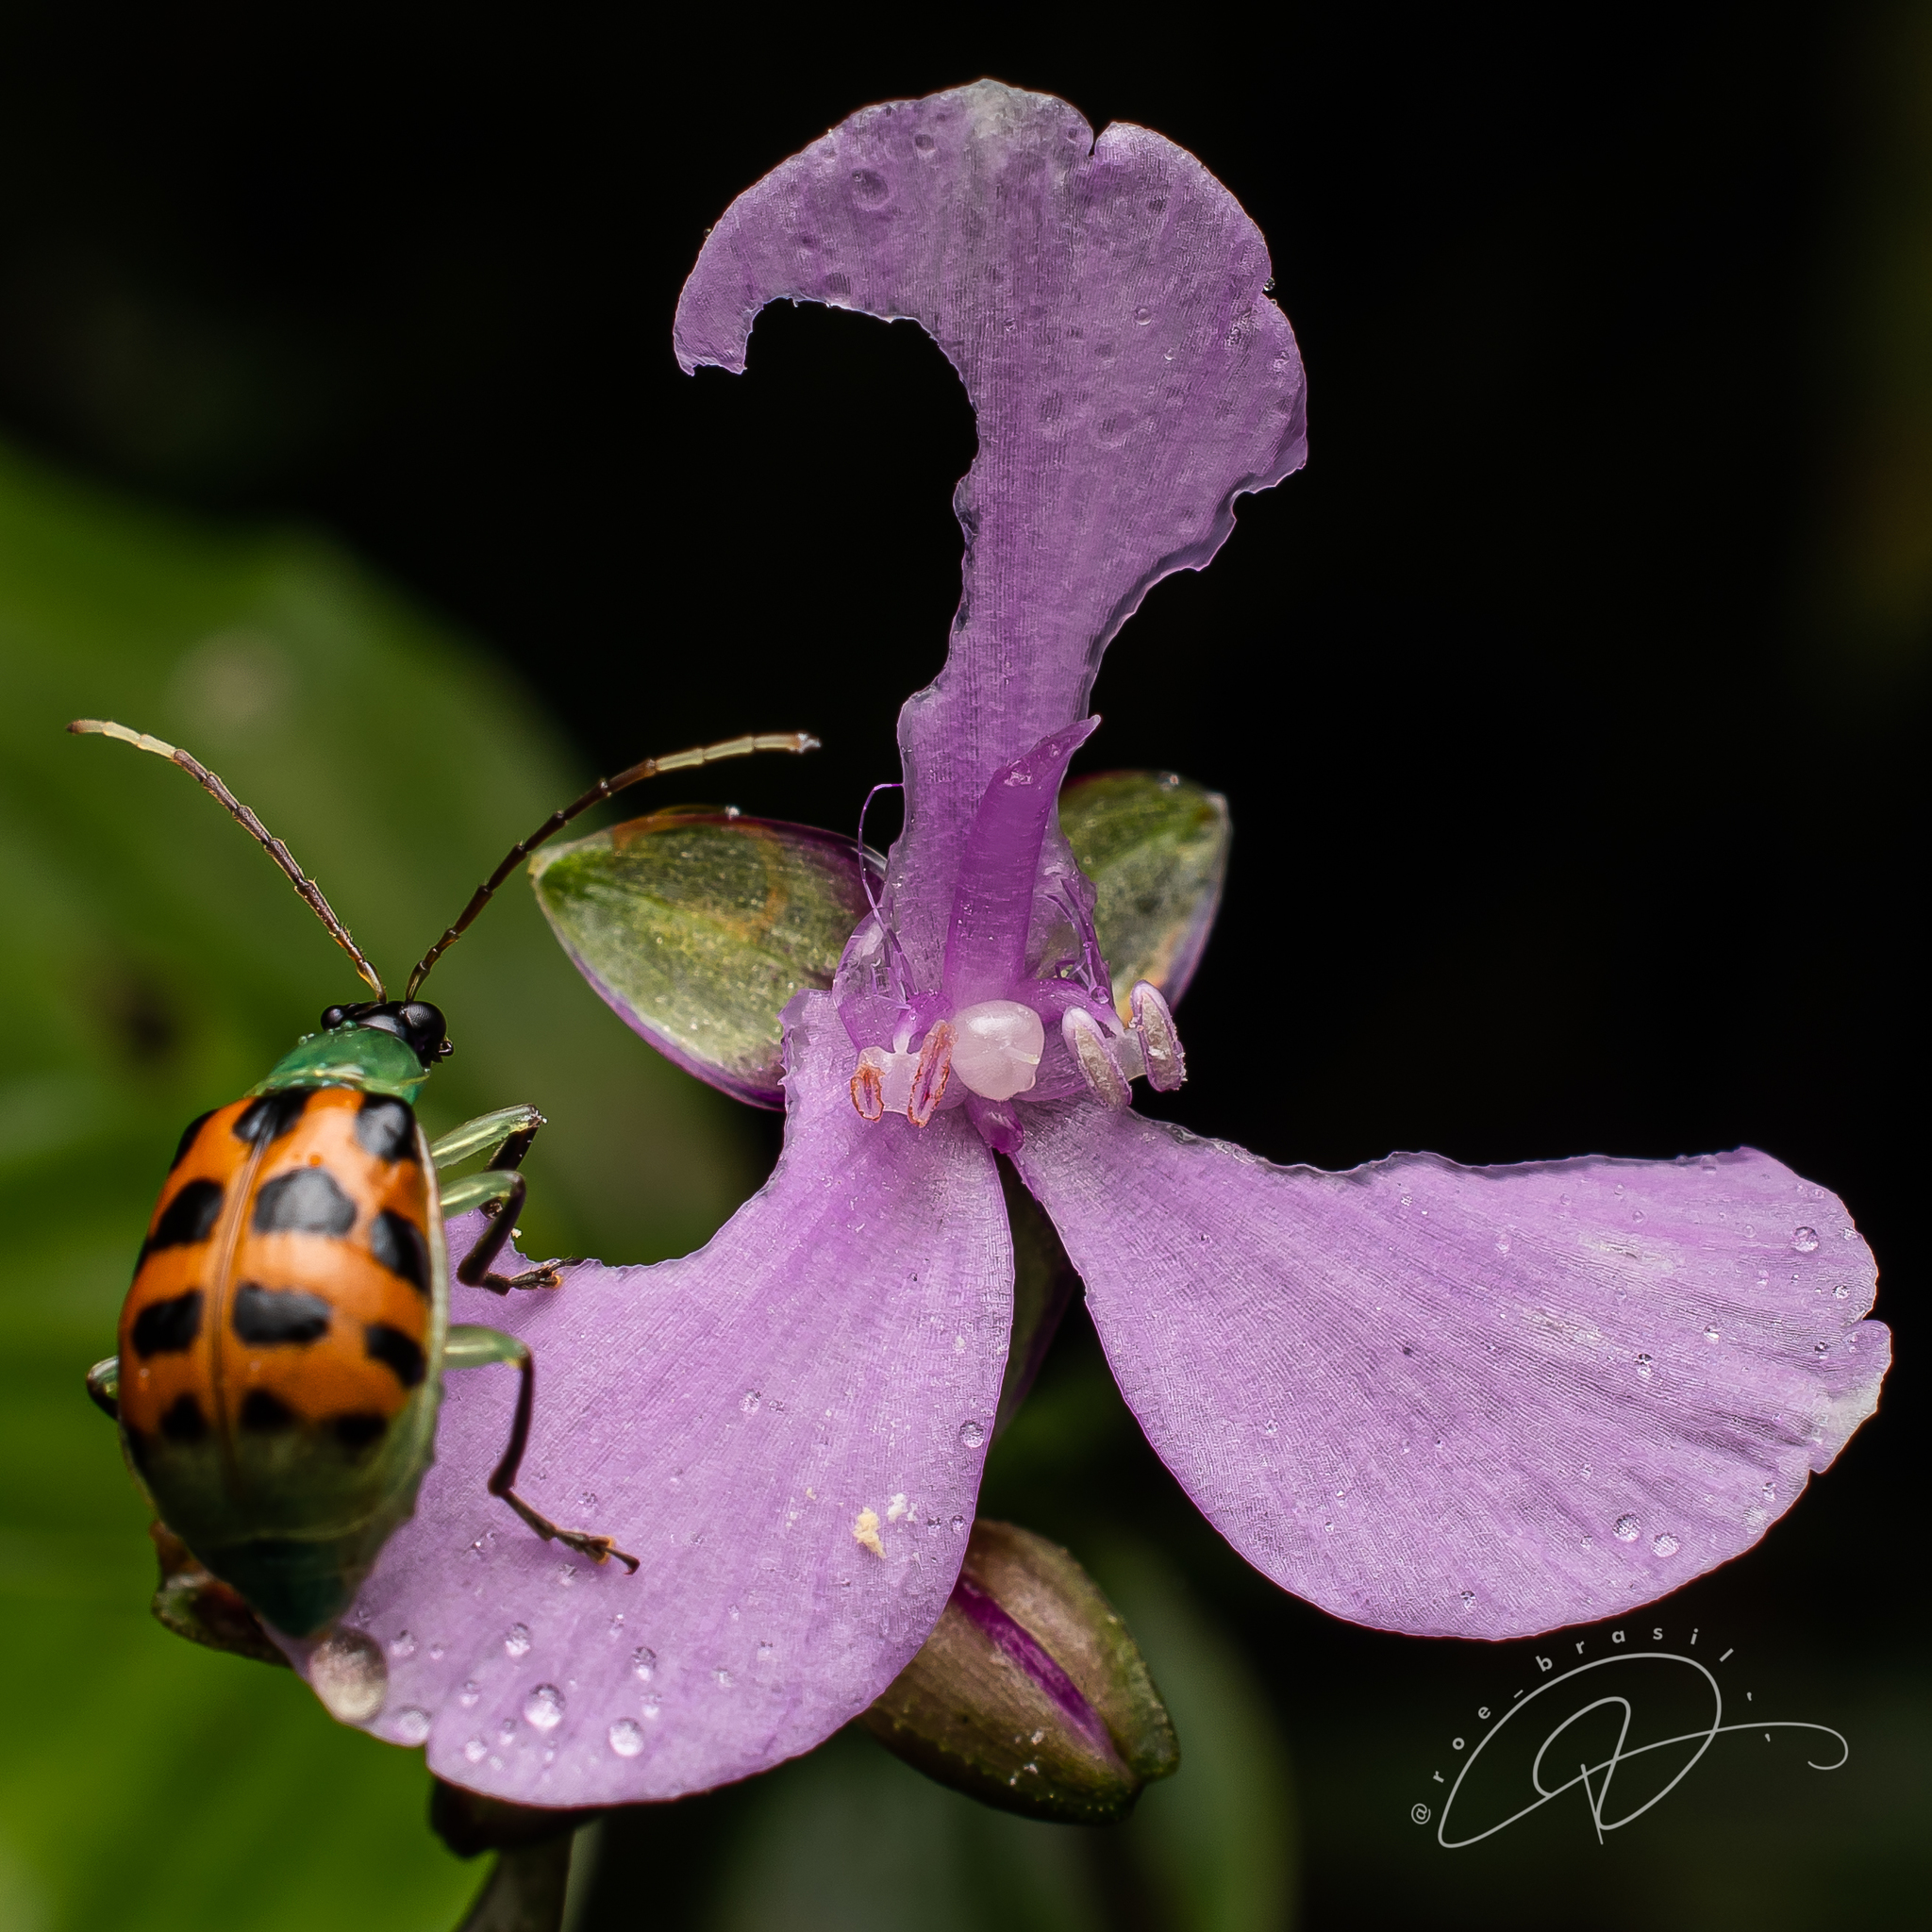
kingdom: Animalia
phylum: Arthropoda
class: Insecta
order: Coleoptera
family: Chrysomelidae
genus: Diabrotica
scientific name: Diabrotica limitata
